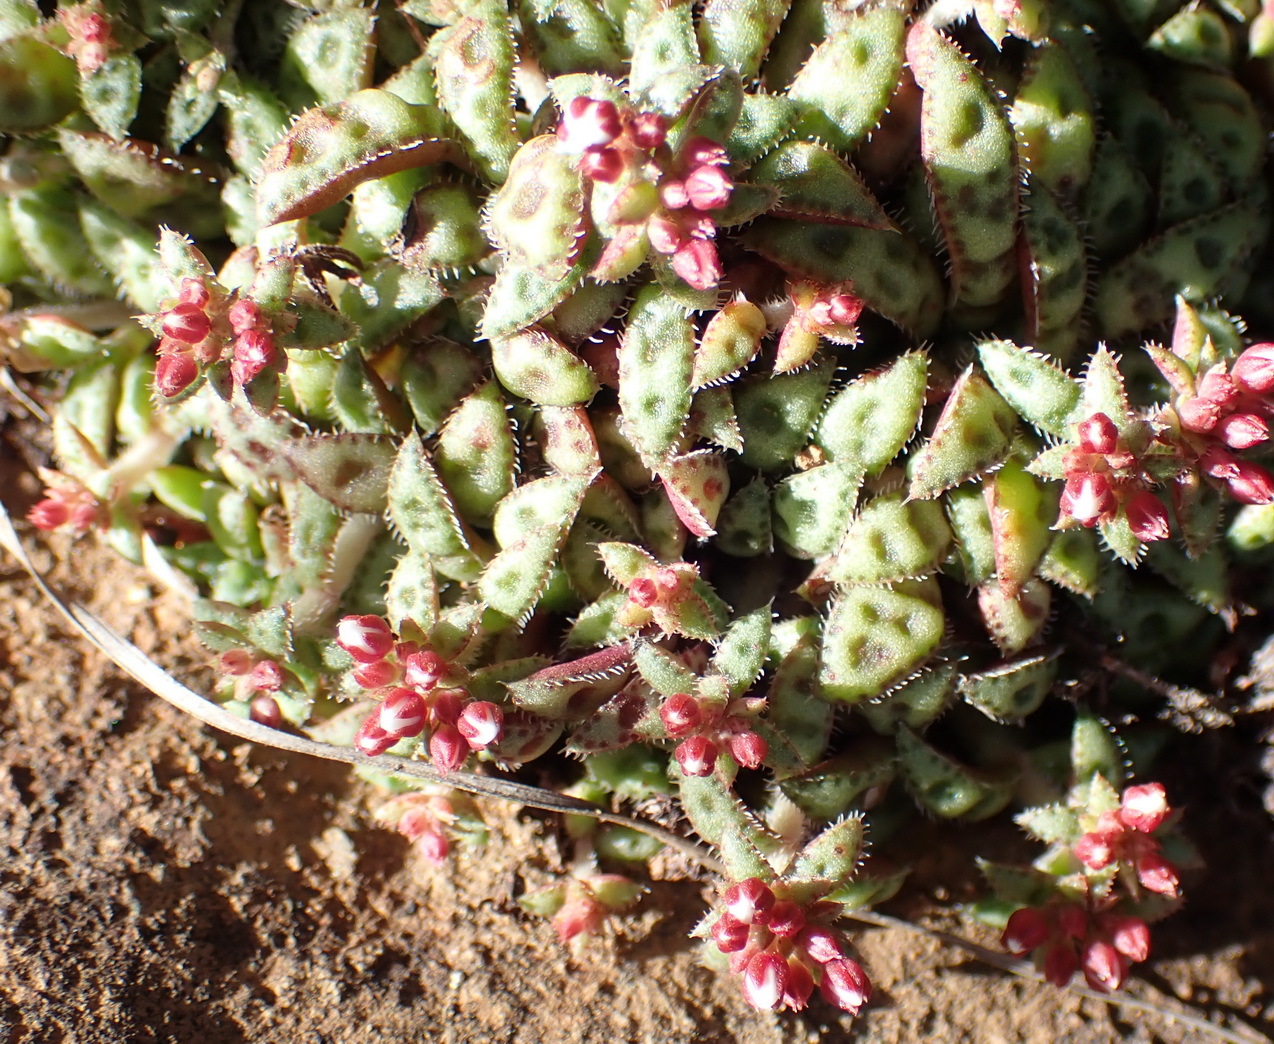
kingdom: Plantae
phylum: Tracheophyta
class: Magnoliopsida
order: Saxifragales
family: Crassulaceae
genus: Crassula
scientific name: Crassula cooperi
